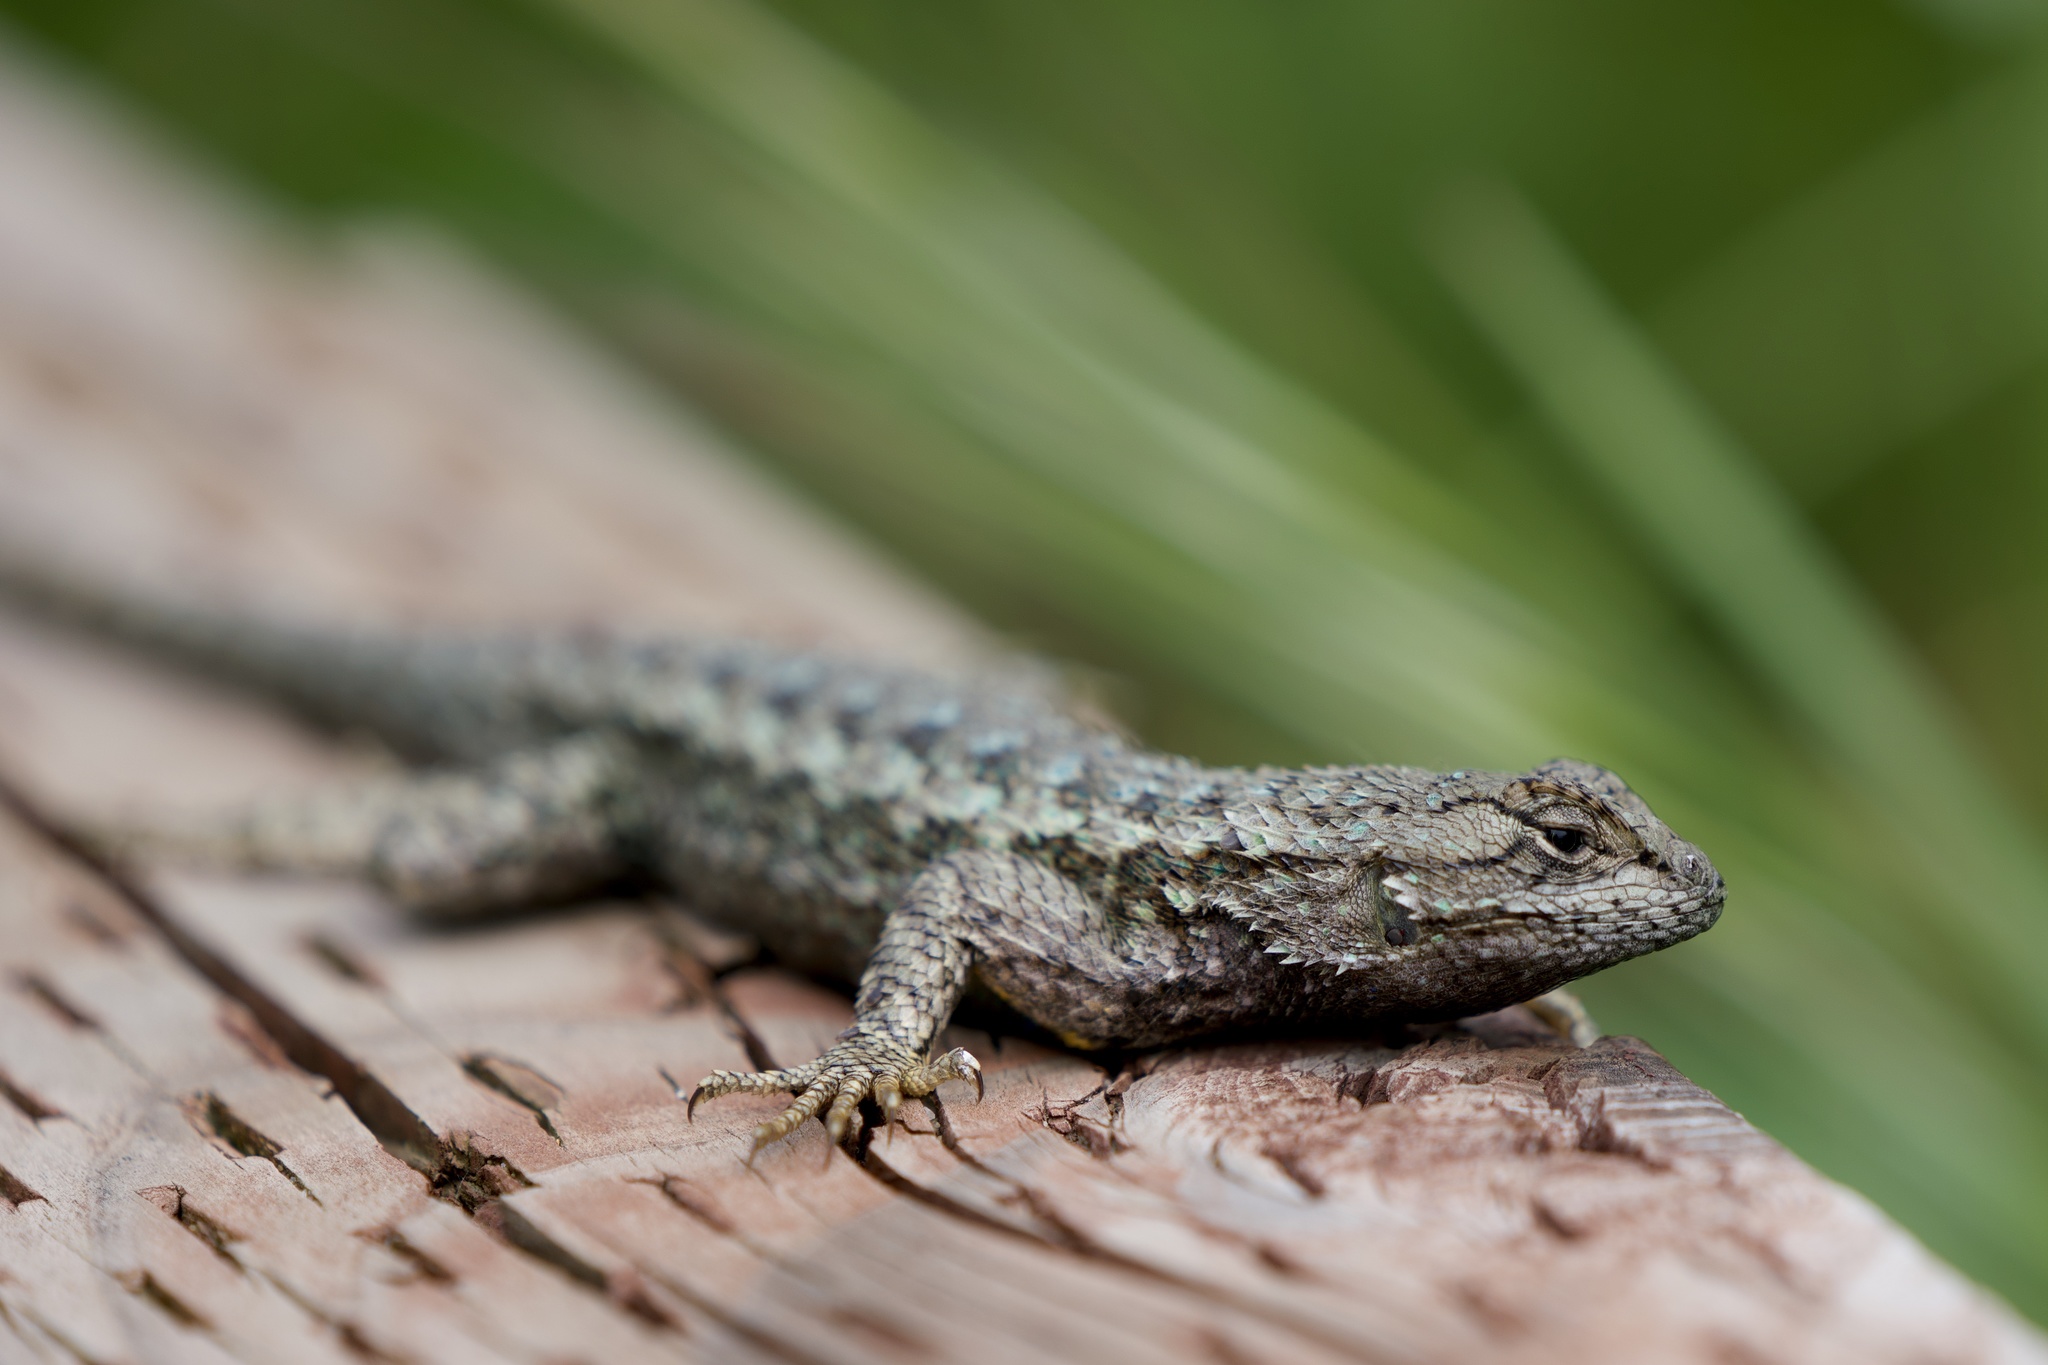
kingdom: Animalia
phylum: Chordata
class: Squamata
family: Phrynosomatidae
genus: Sceloporus
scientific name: Sceloporus occidentalis
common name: Western fence lizard
